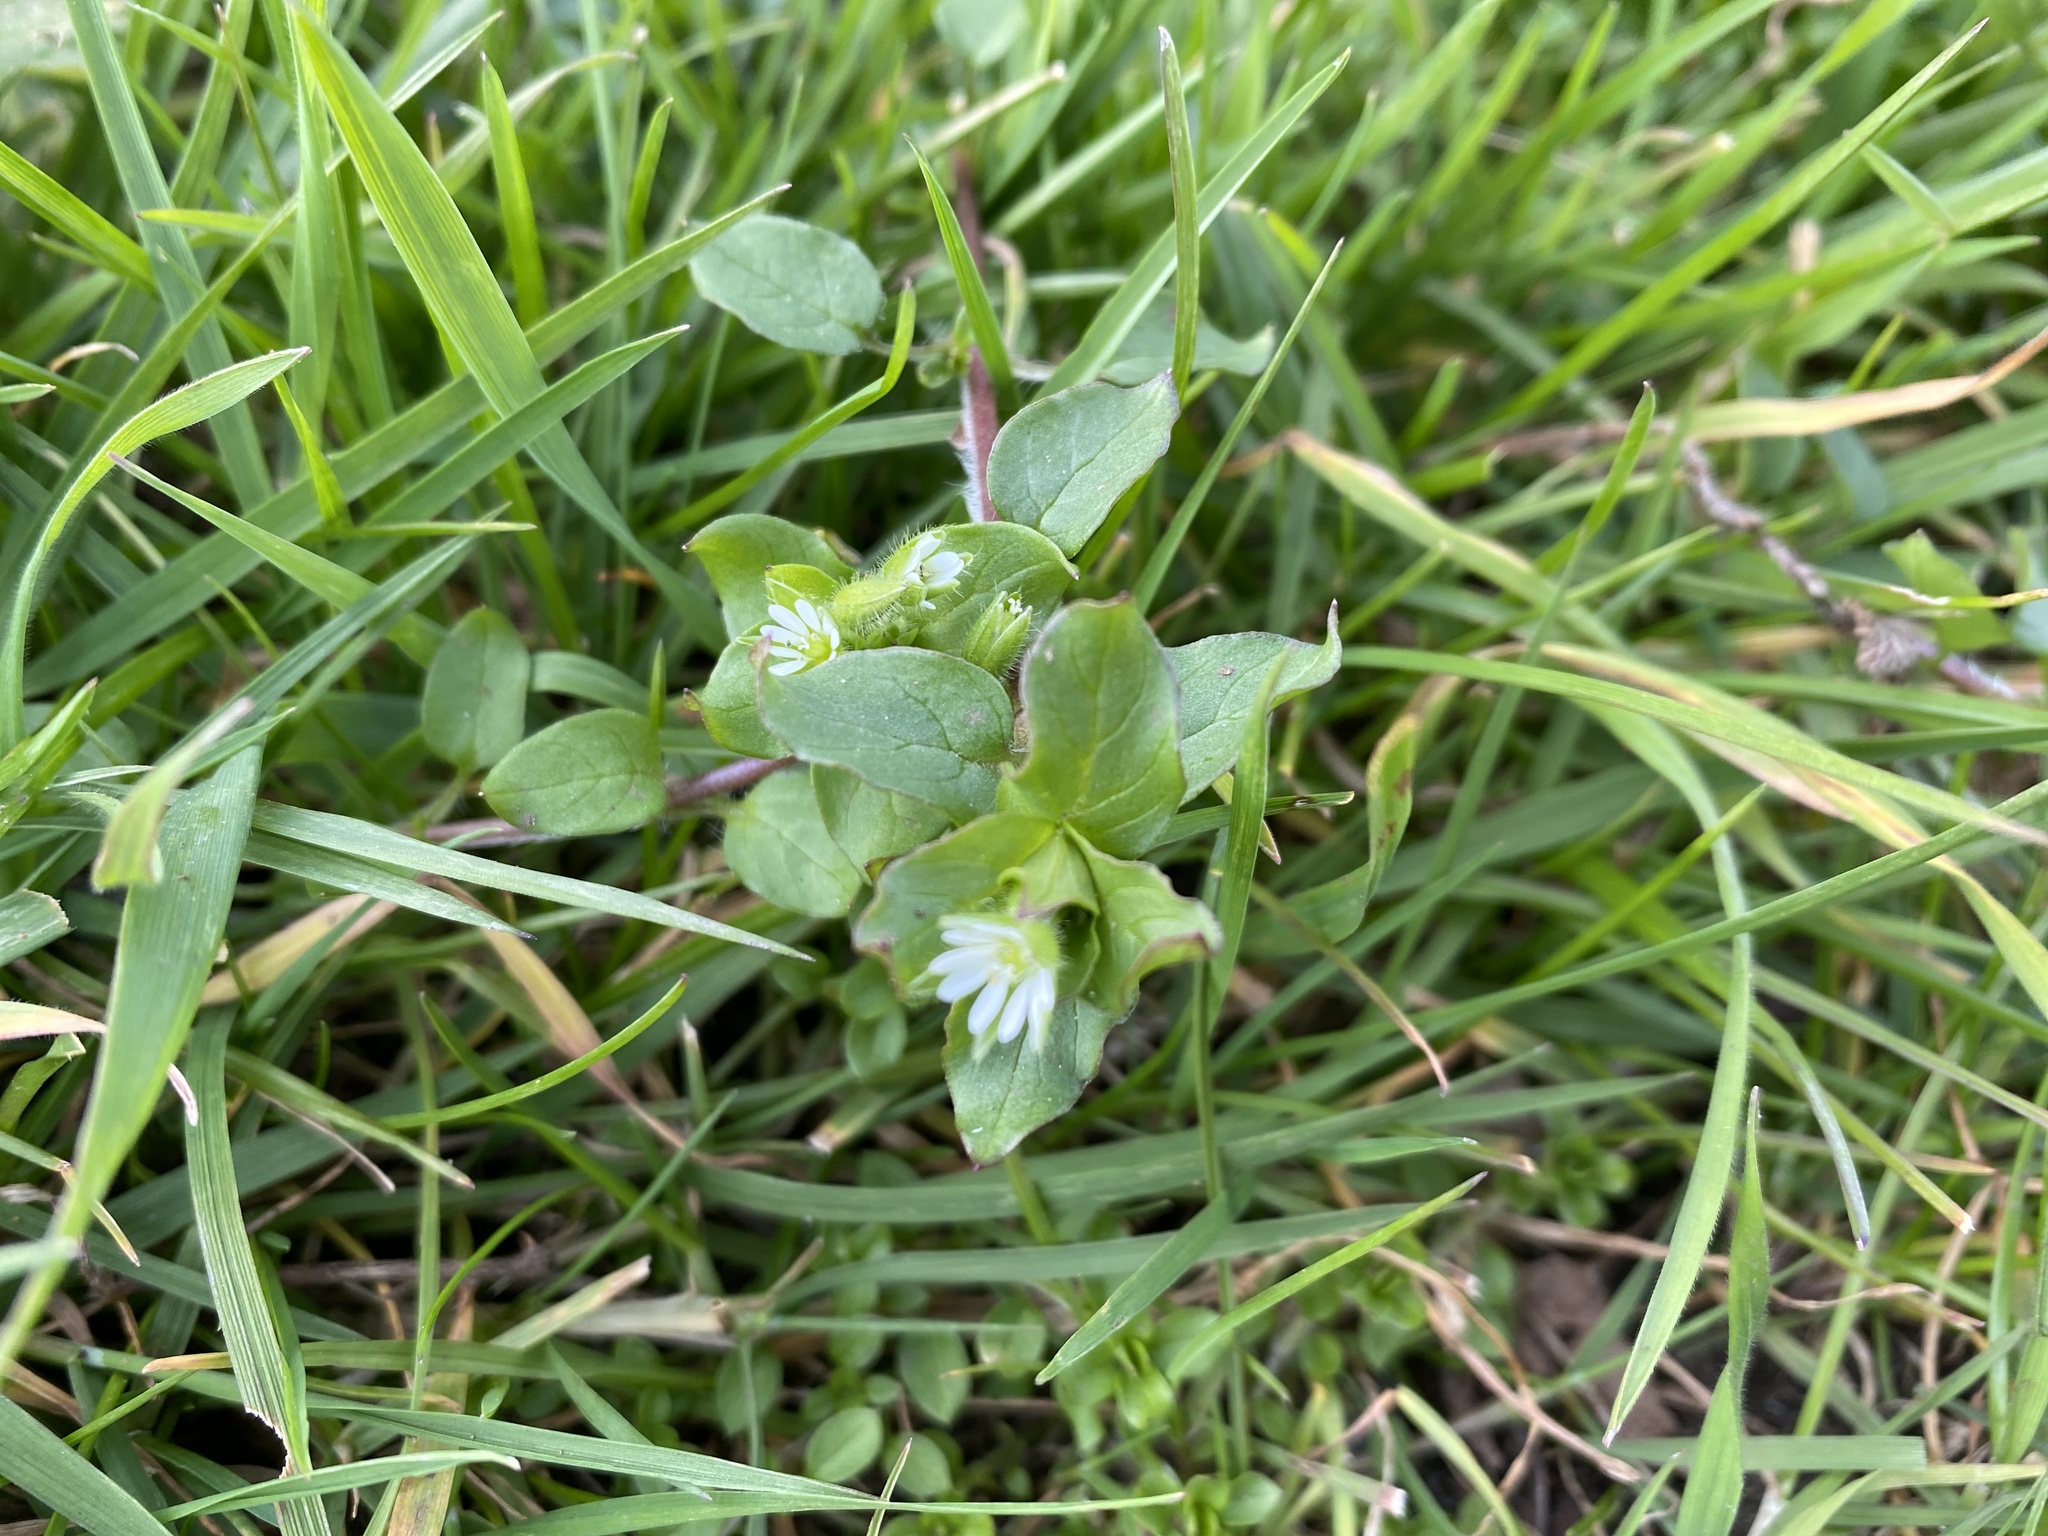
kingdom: Plantae
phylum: Tracheophyta
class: Magnoliopsida
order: Caryophyllales
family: Caryophyllaceae
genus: Stellaria
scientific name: Stellaria media
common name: Common chickweed
